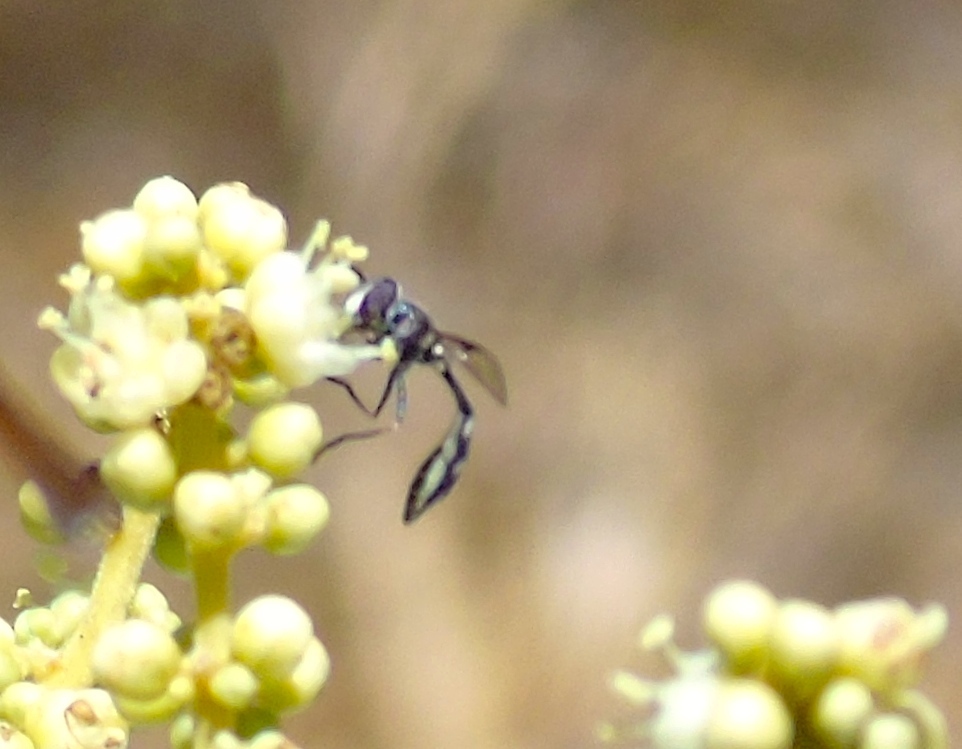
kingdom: Animalia
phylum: Arthropoda
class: Insecta
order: Diptera
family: Syrphidae
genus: Dioprosopa
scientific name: Dioprosopa clavatus
